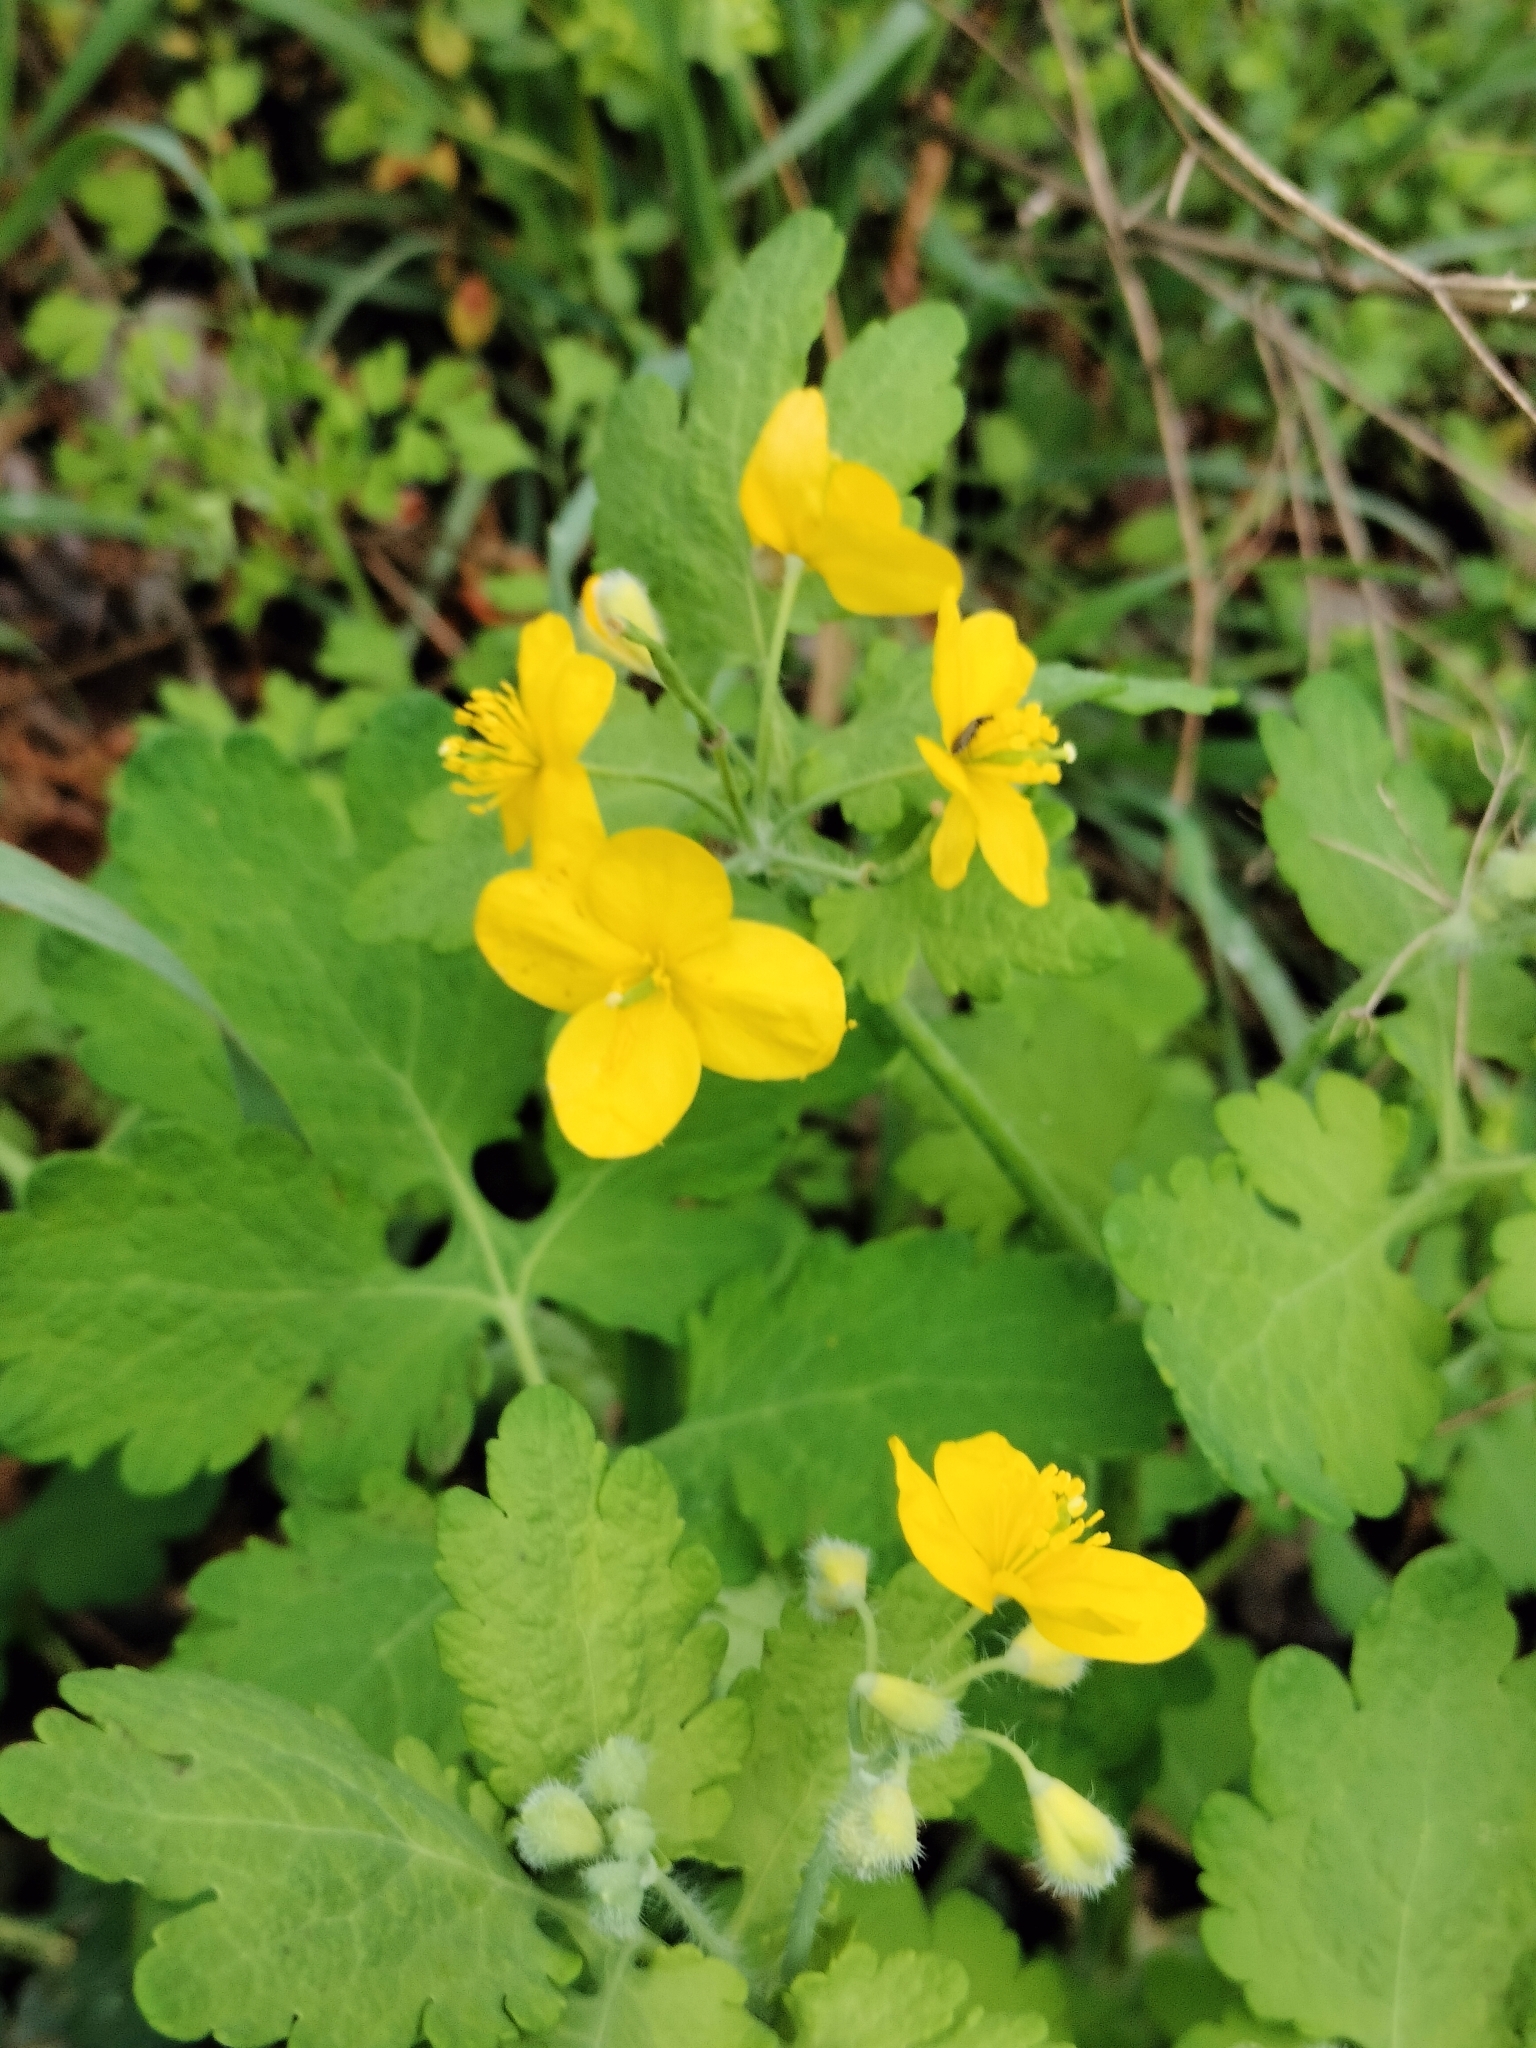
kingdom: Plantae
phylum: Tracheophyta
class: Magnoliopsida
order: Ranunculales
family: Papaveraceae
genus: Chelidonium
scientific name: Chelidonium majus
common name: Greater celandine
